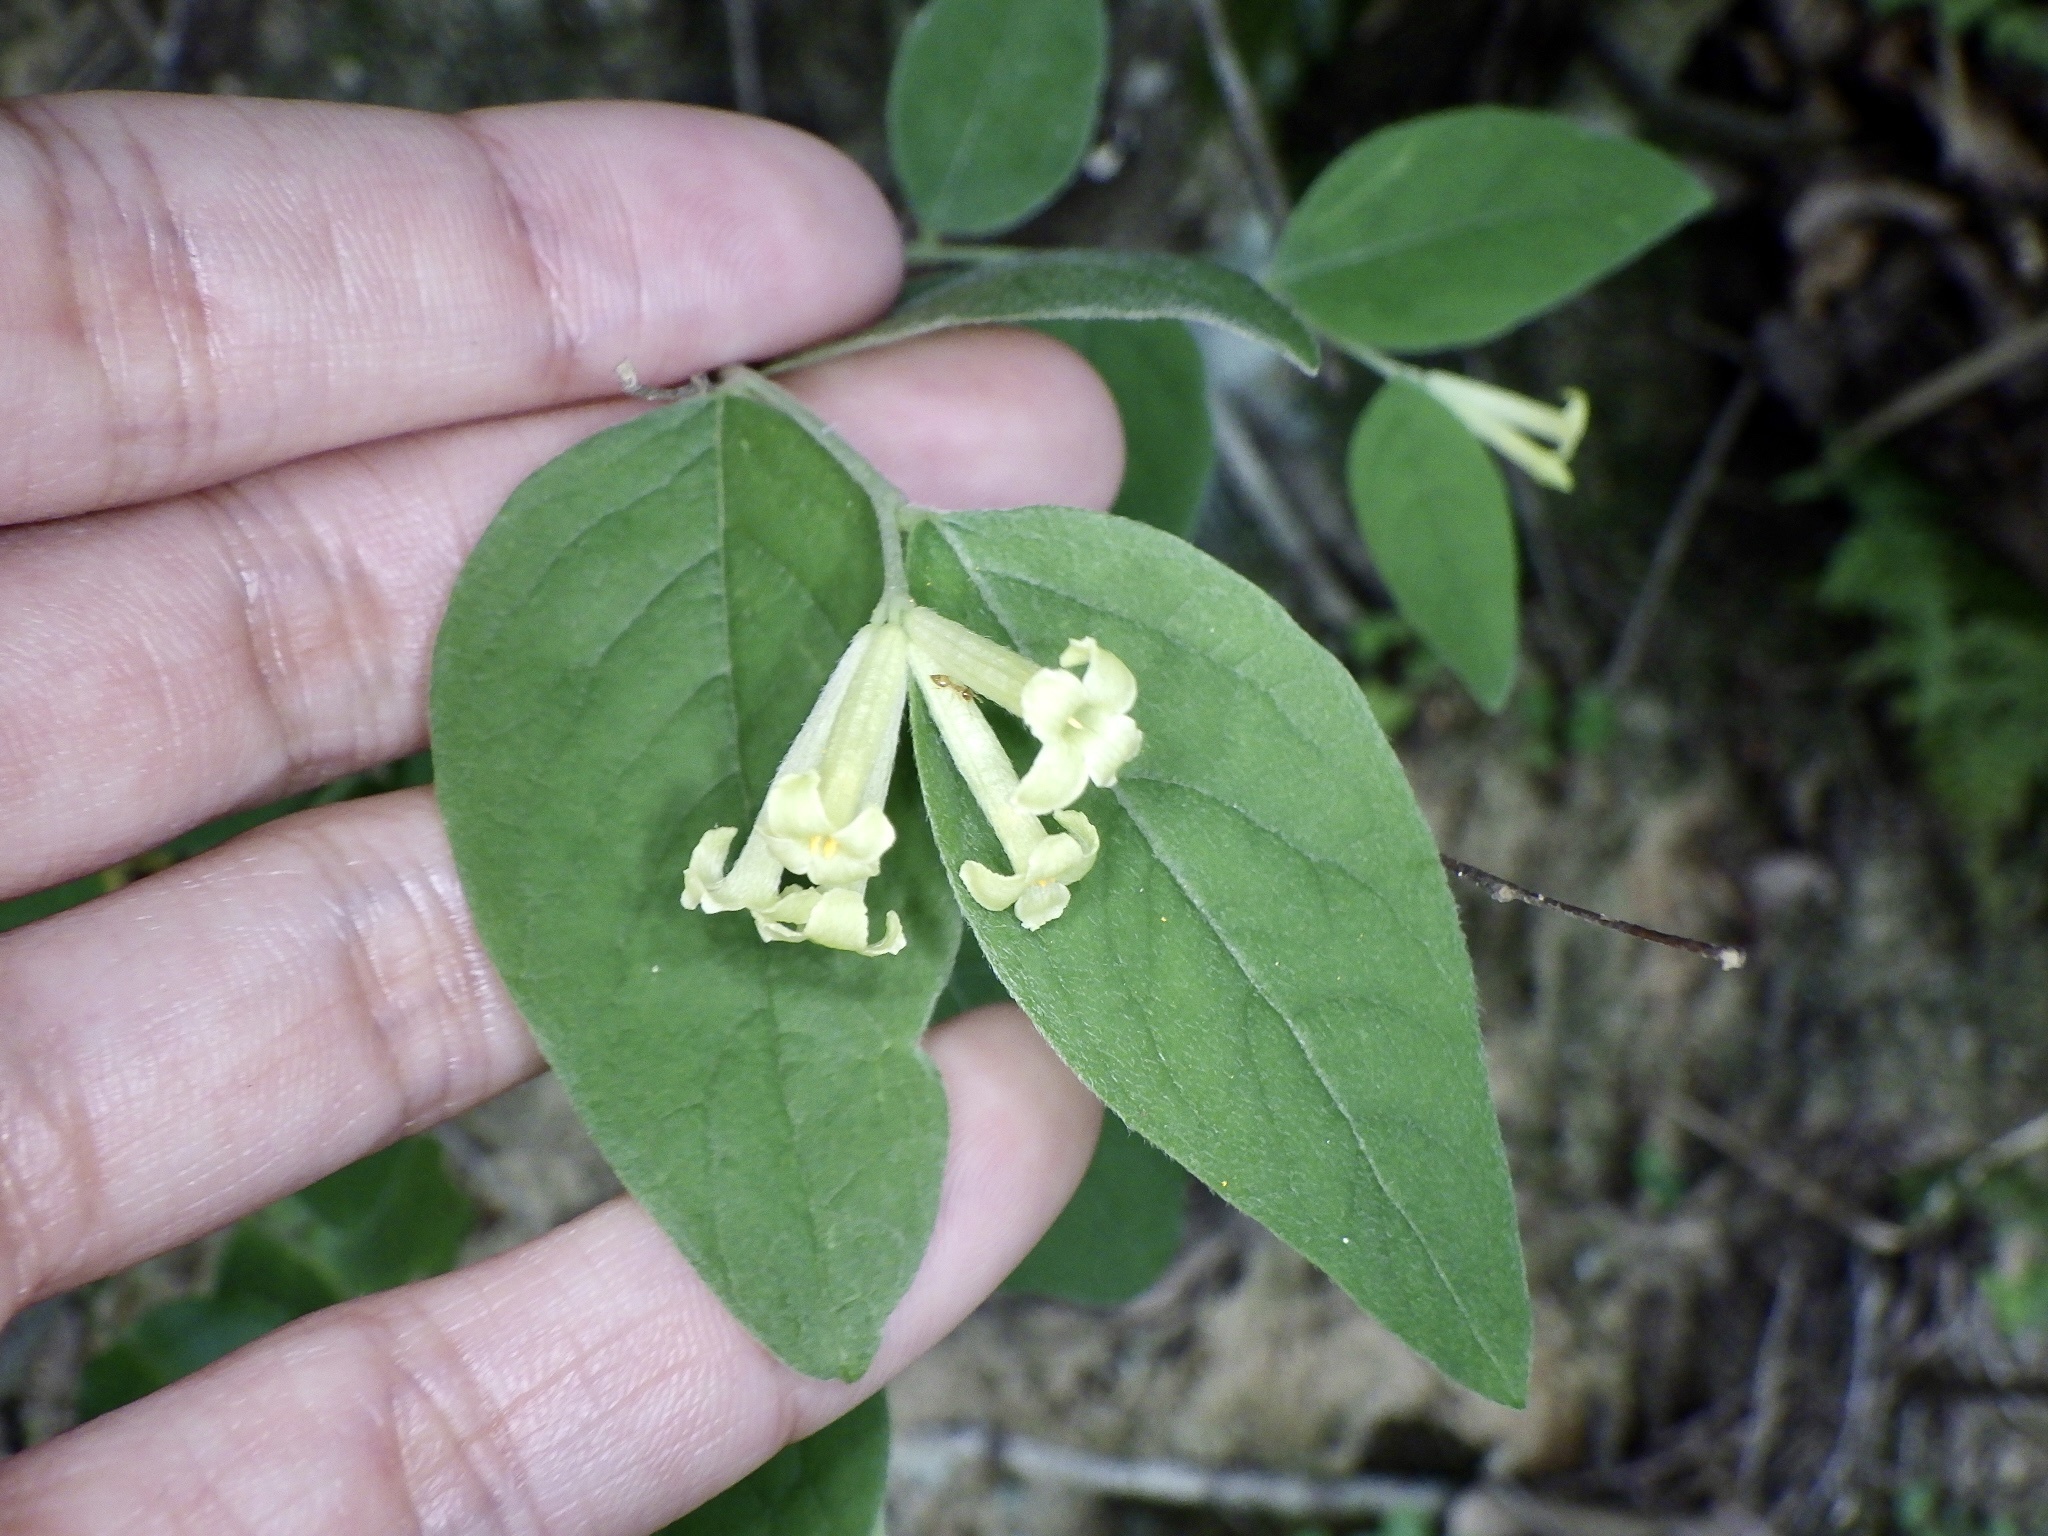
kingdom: Plantae
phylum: Tracheophyta
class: Magnoliopsida
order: Malvales
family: Thymelaeaceae
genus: Wikstroemia
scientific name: Wikstroemia sikokiana
